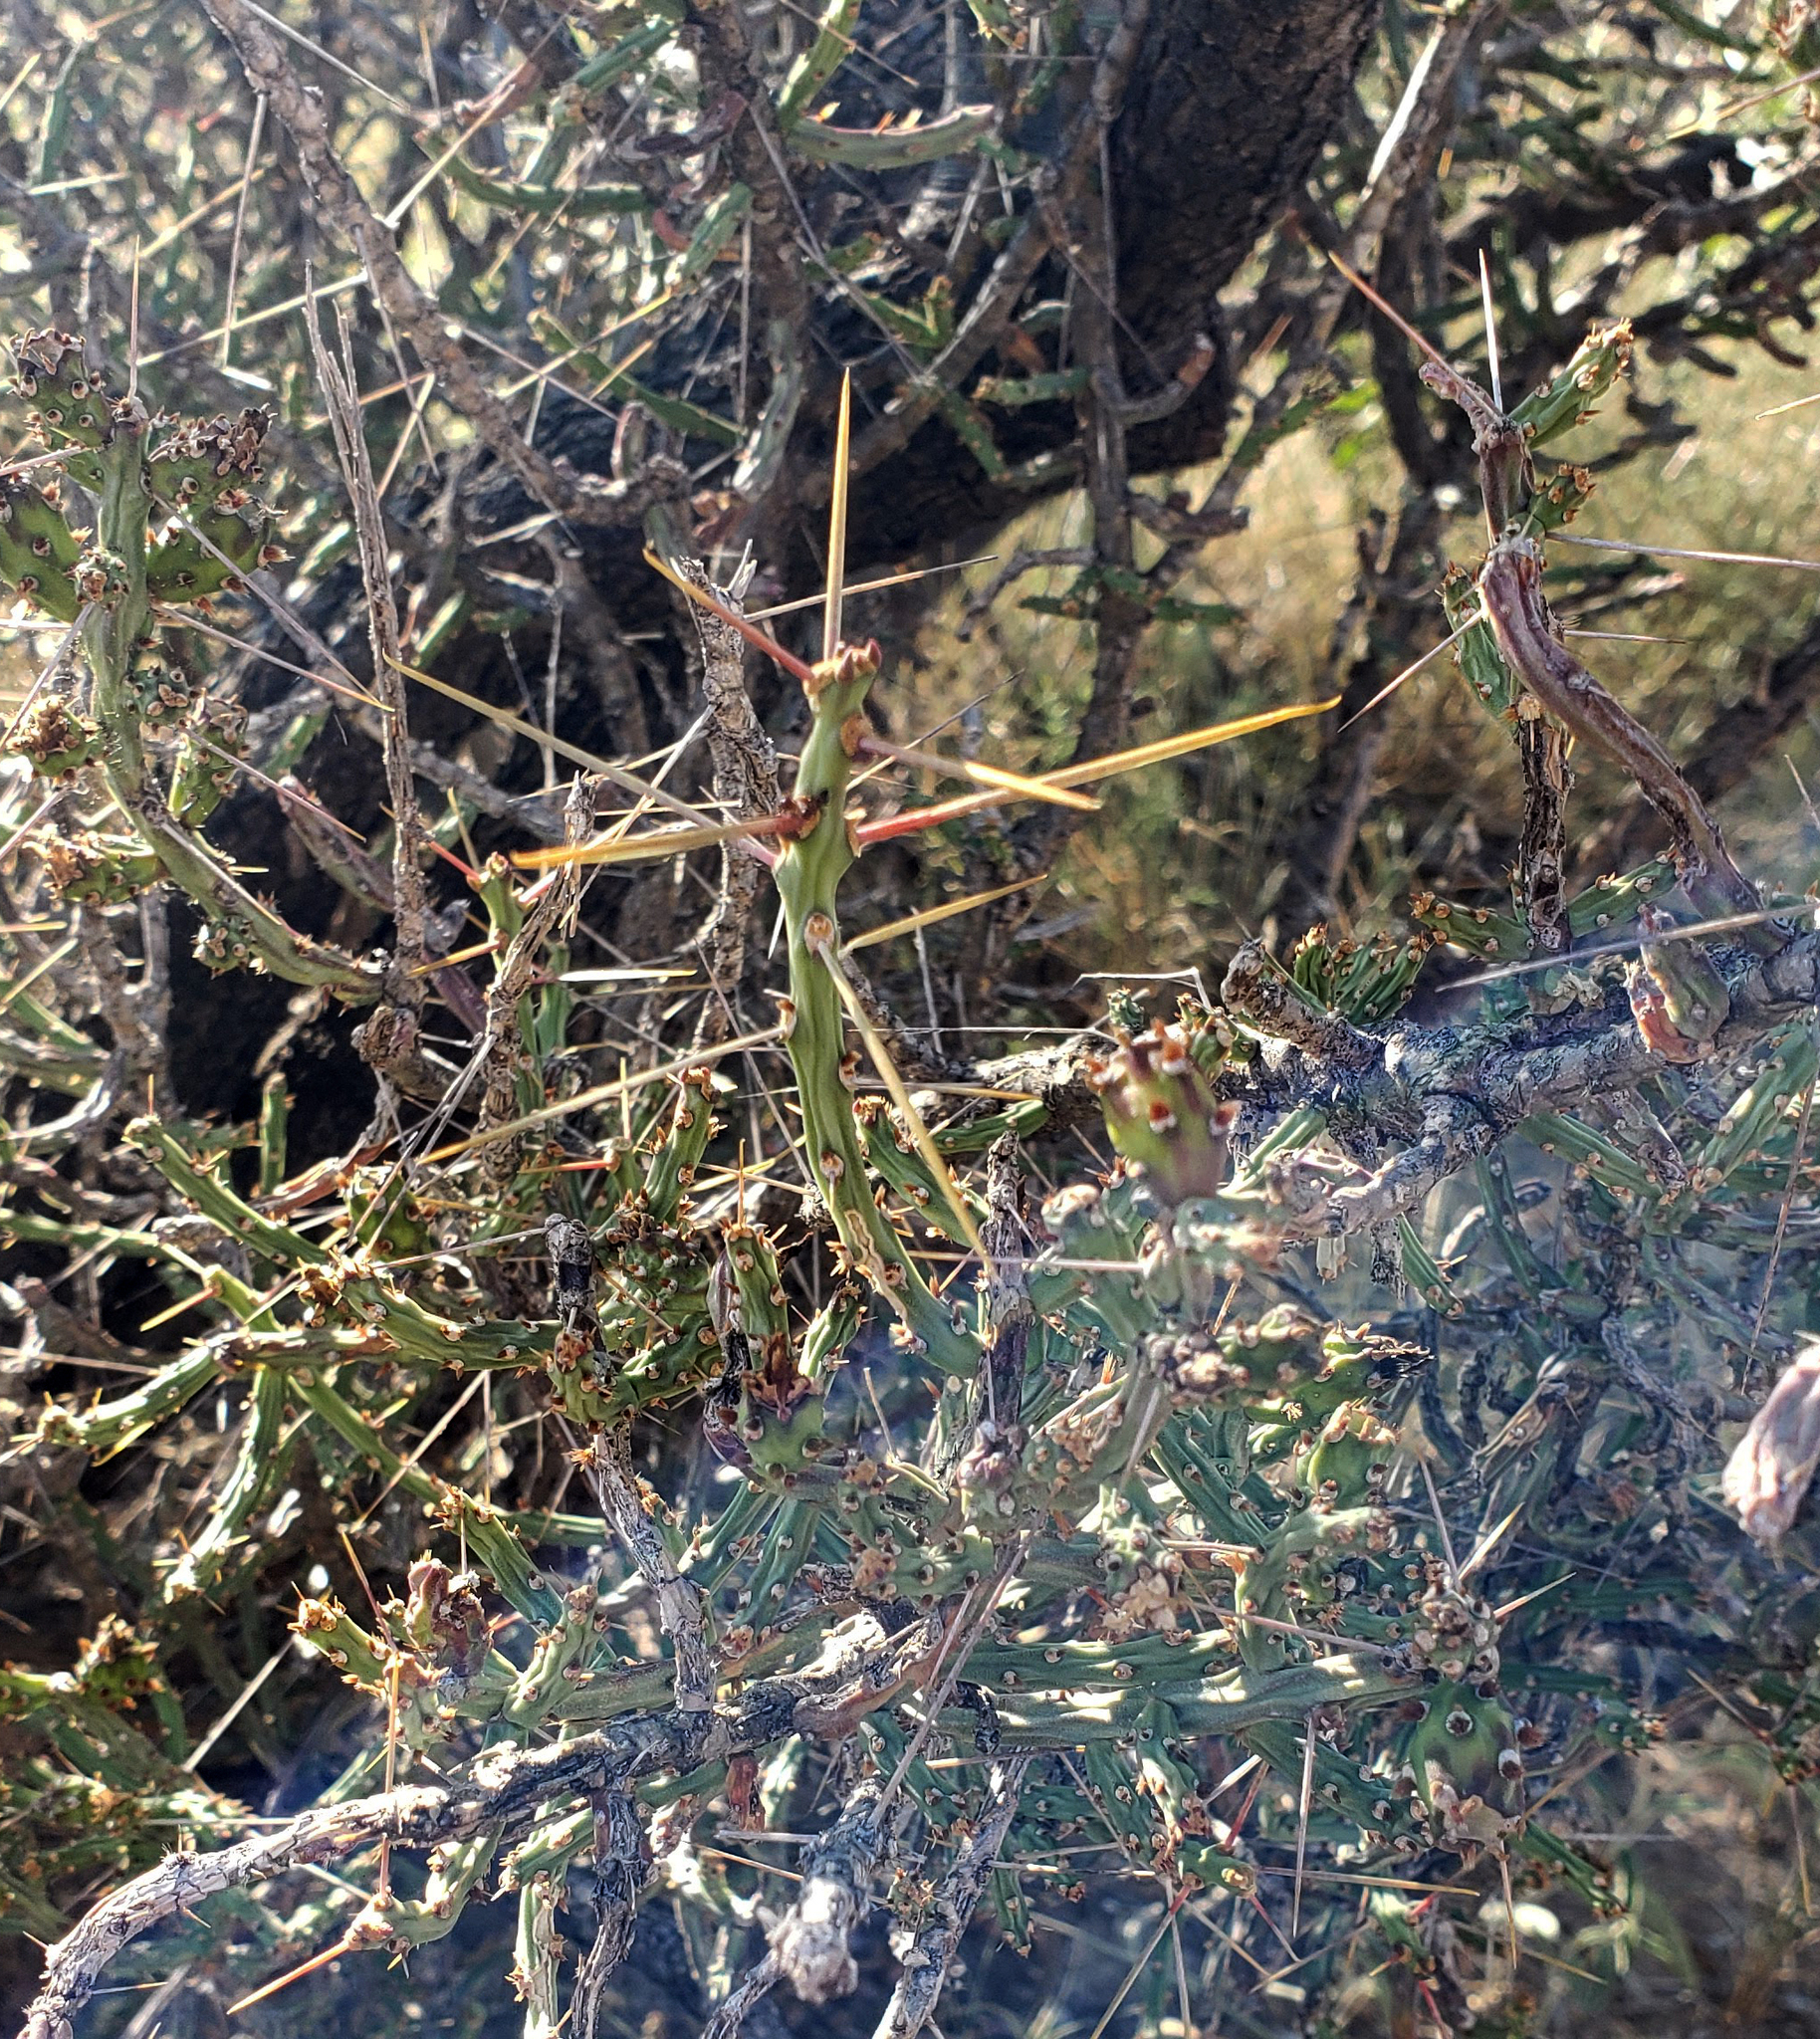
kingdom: Plantae
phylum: Tracheophyta
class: Magnoliopsida
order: Caryophyllales
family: Cactaceae
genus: Cylindropuntia
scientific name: Cylindropuntia leptocaulis
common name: Christmas cactus
